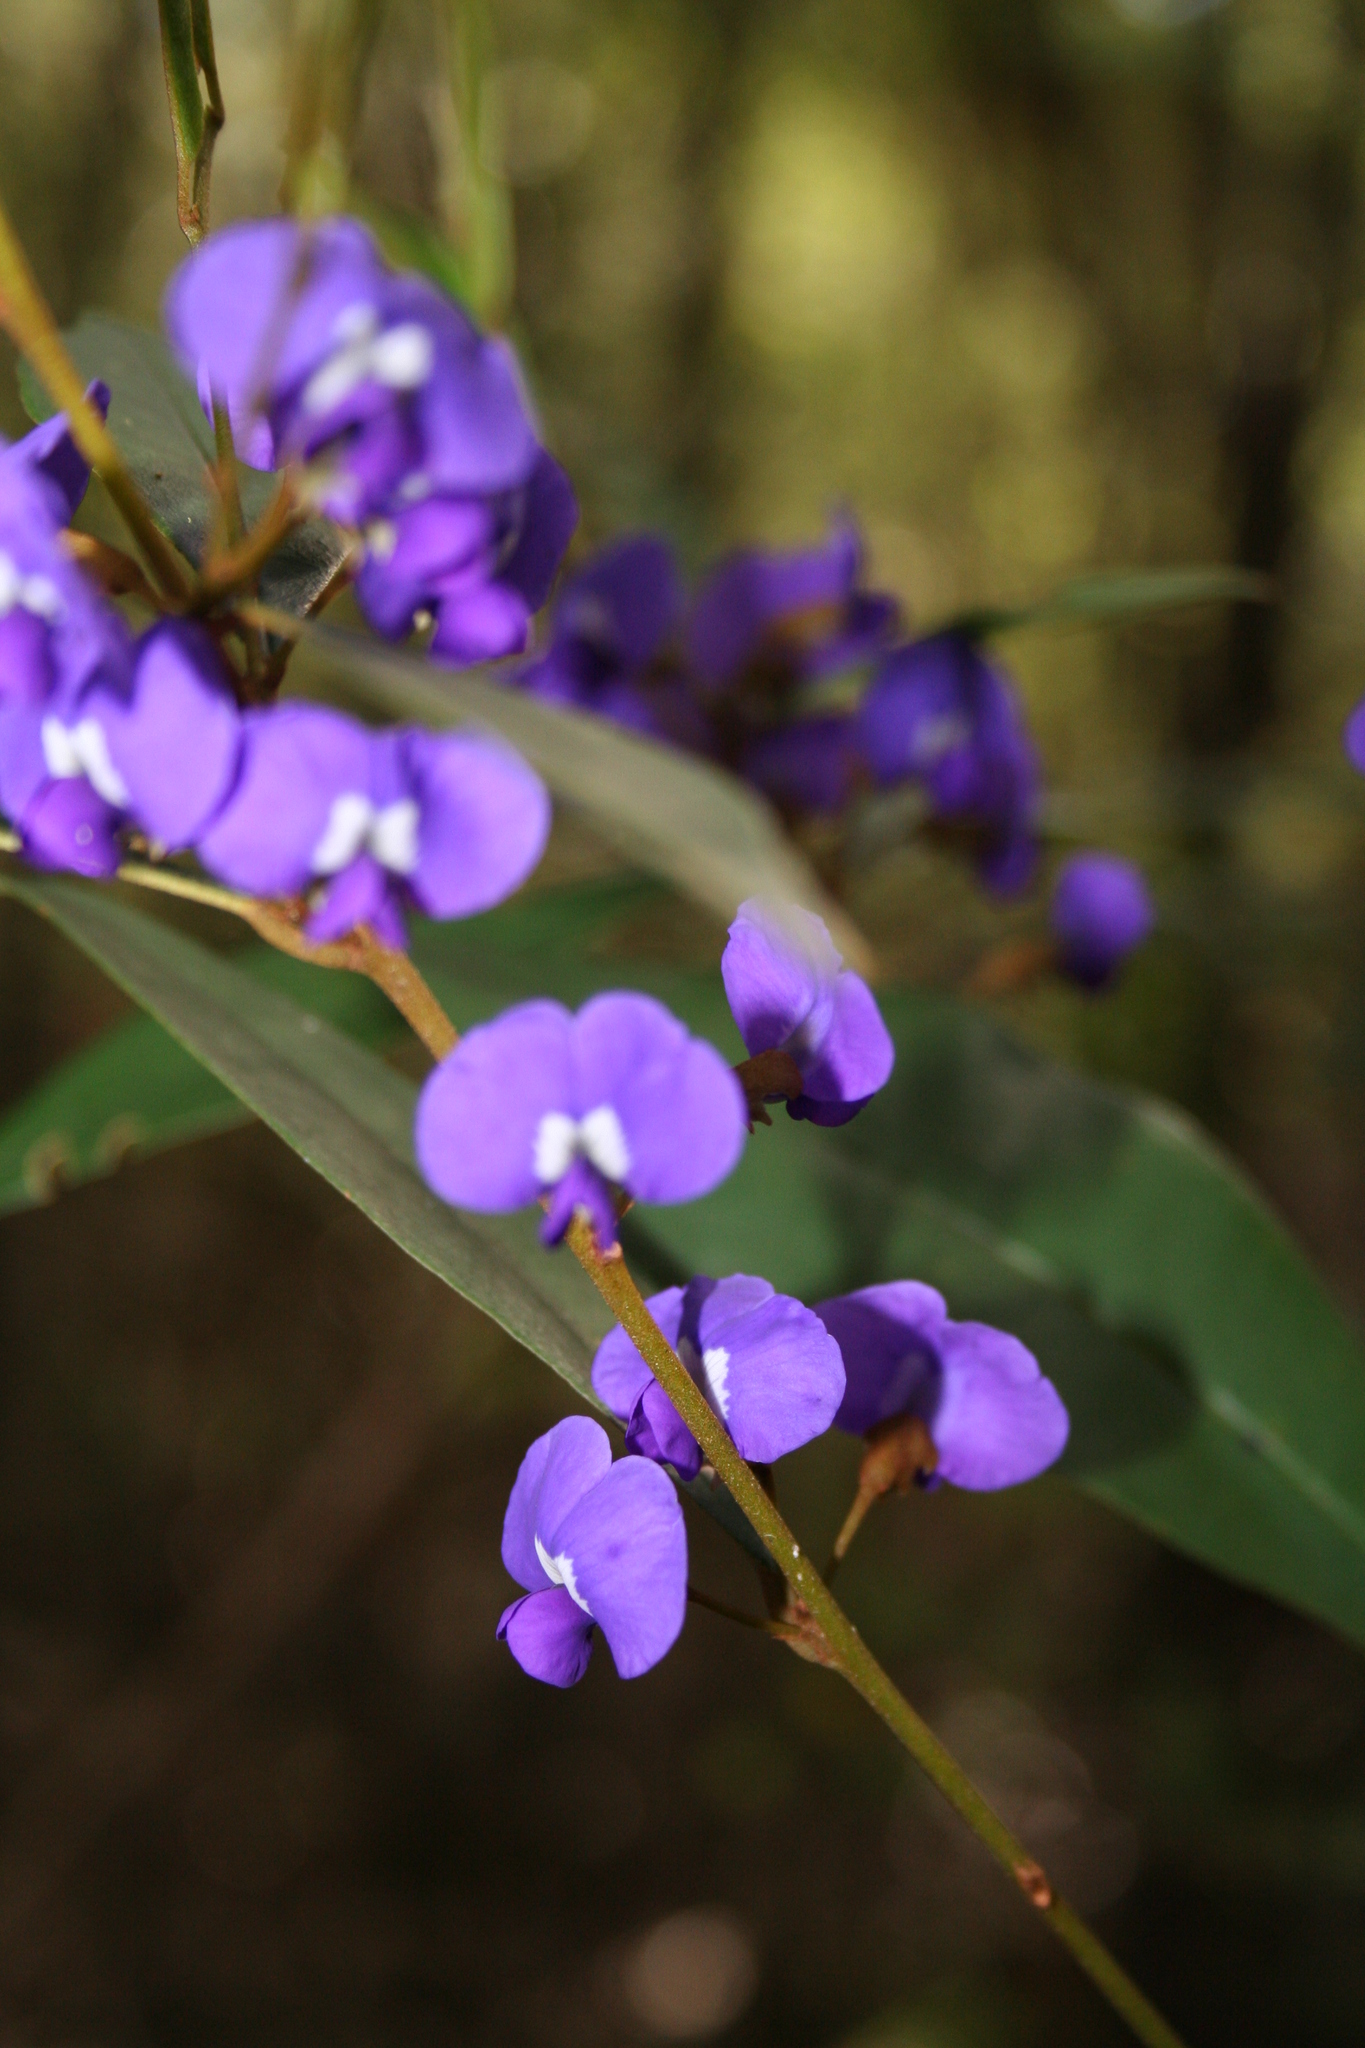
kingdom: Plantae
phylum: Tracheophyta
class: Magnoliopsida
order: Fabales
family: Fabaceae
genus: Hovea
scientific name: Hovea elliptica
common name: Tree hovea
